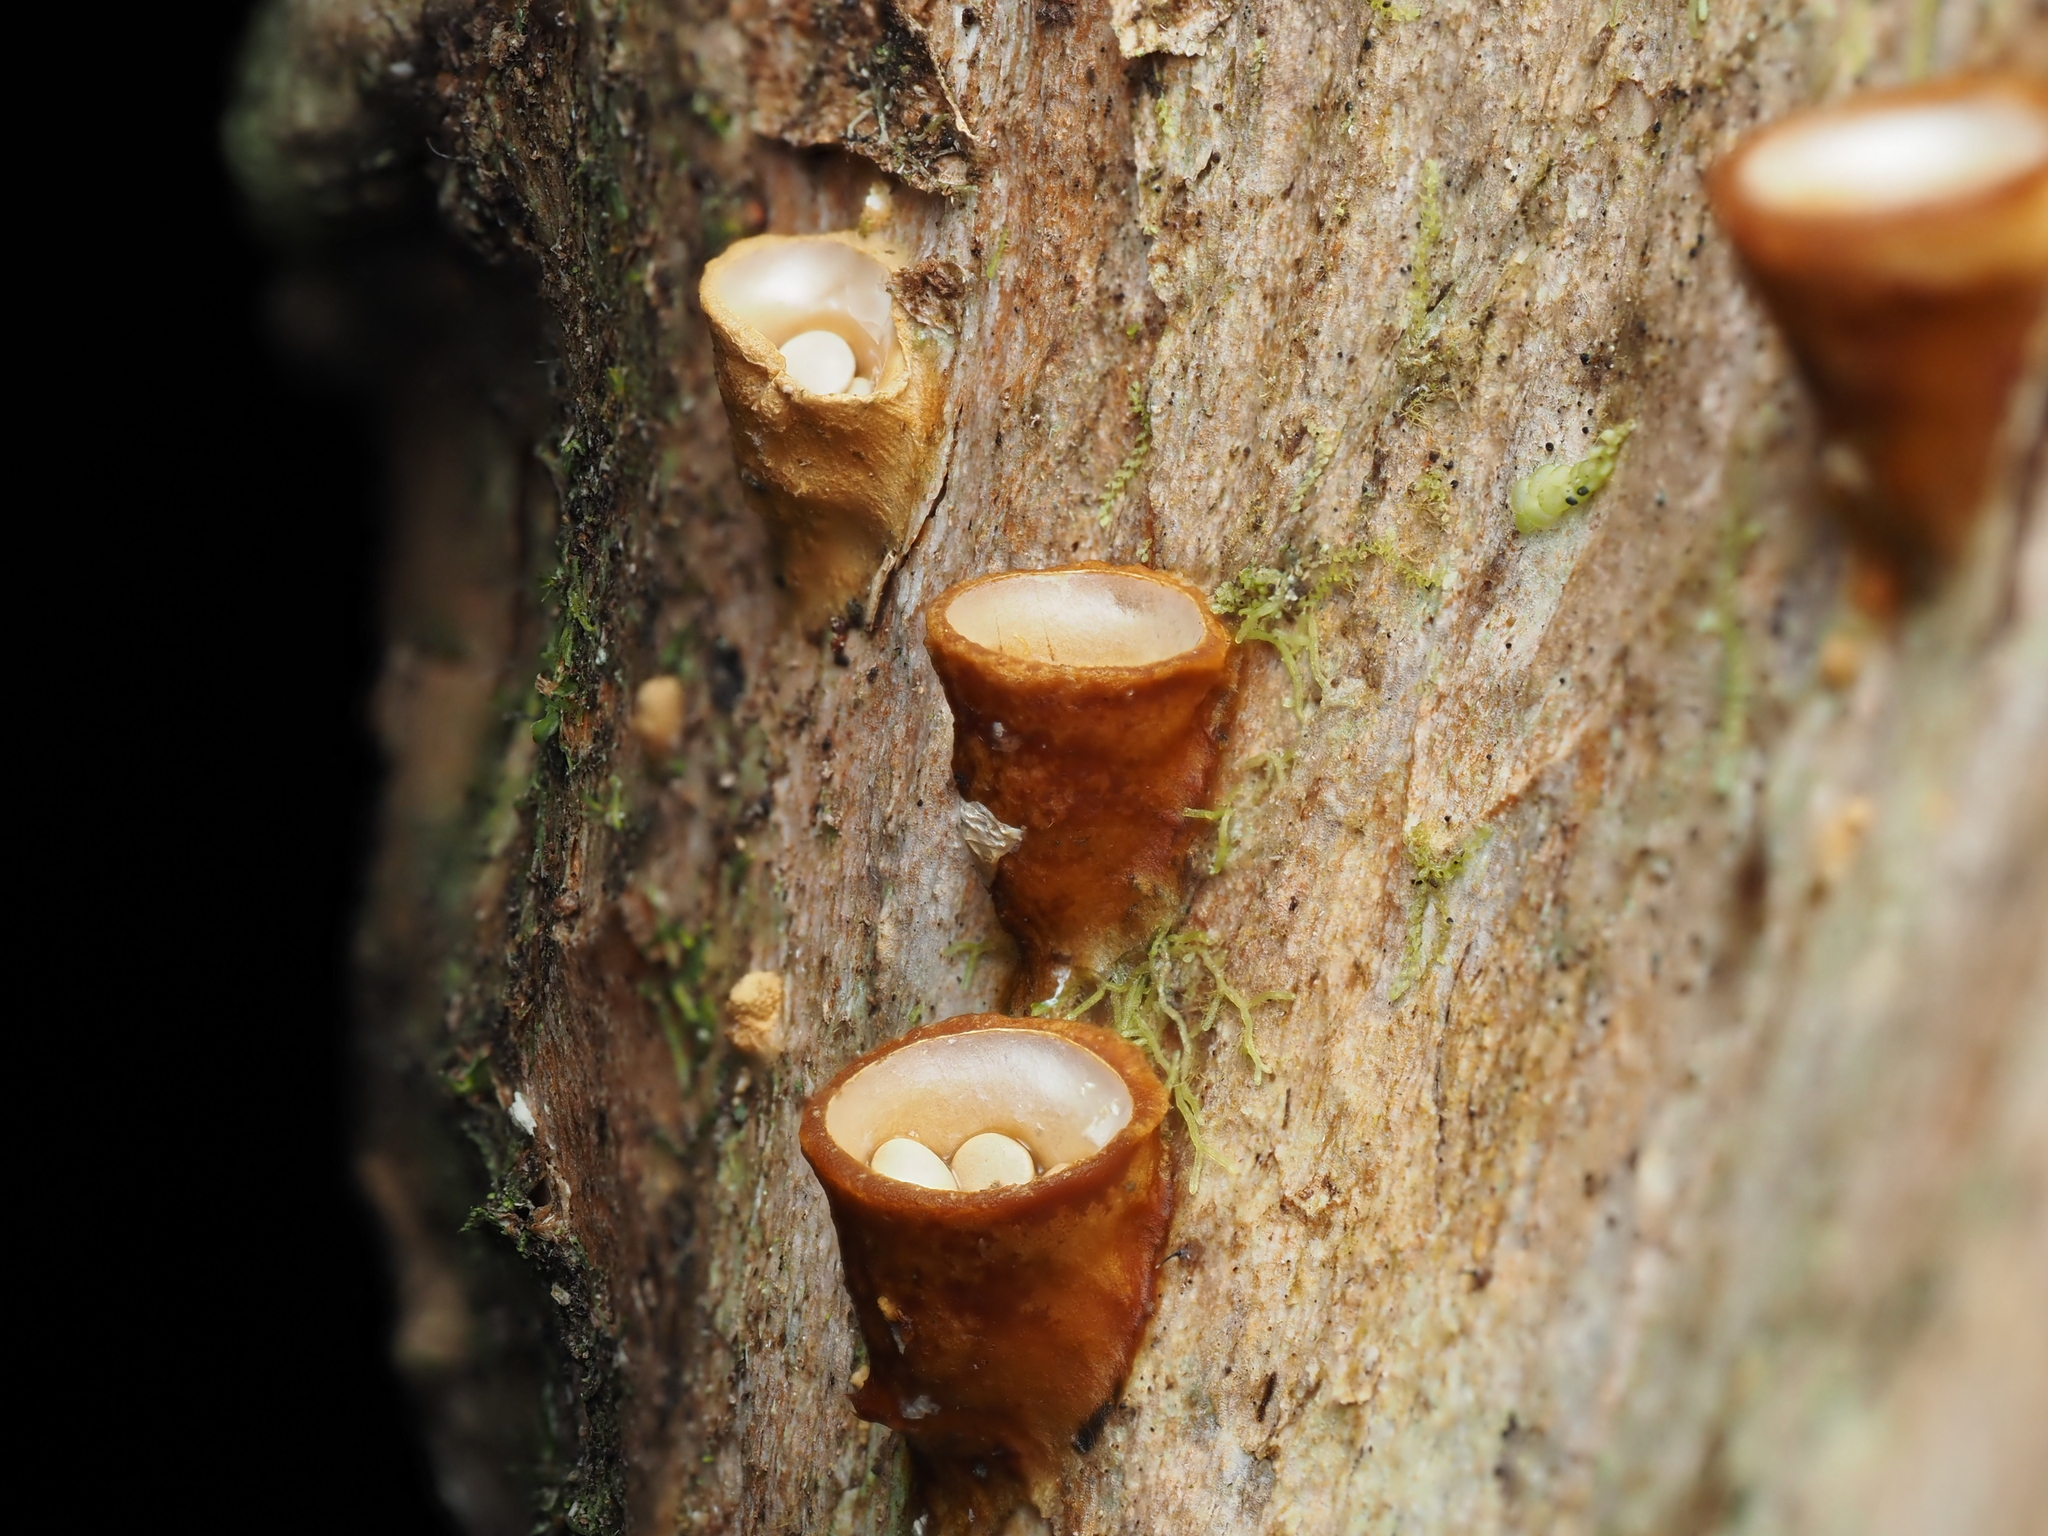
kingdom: Fungi
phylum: Basidiomycota
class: Agaricomycetes
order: Agaricales
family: Nidulariaceae
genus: Crucibulum
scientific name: Crucibulum simile
